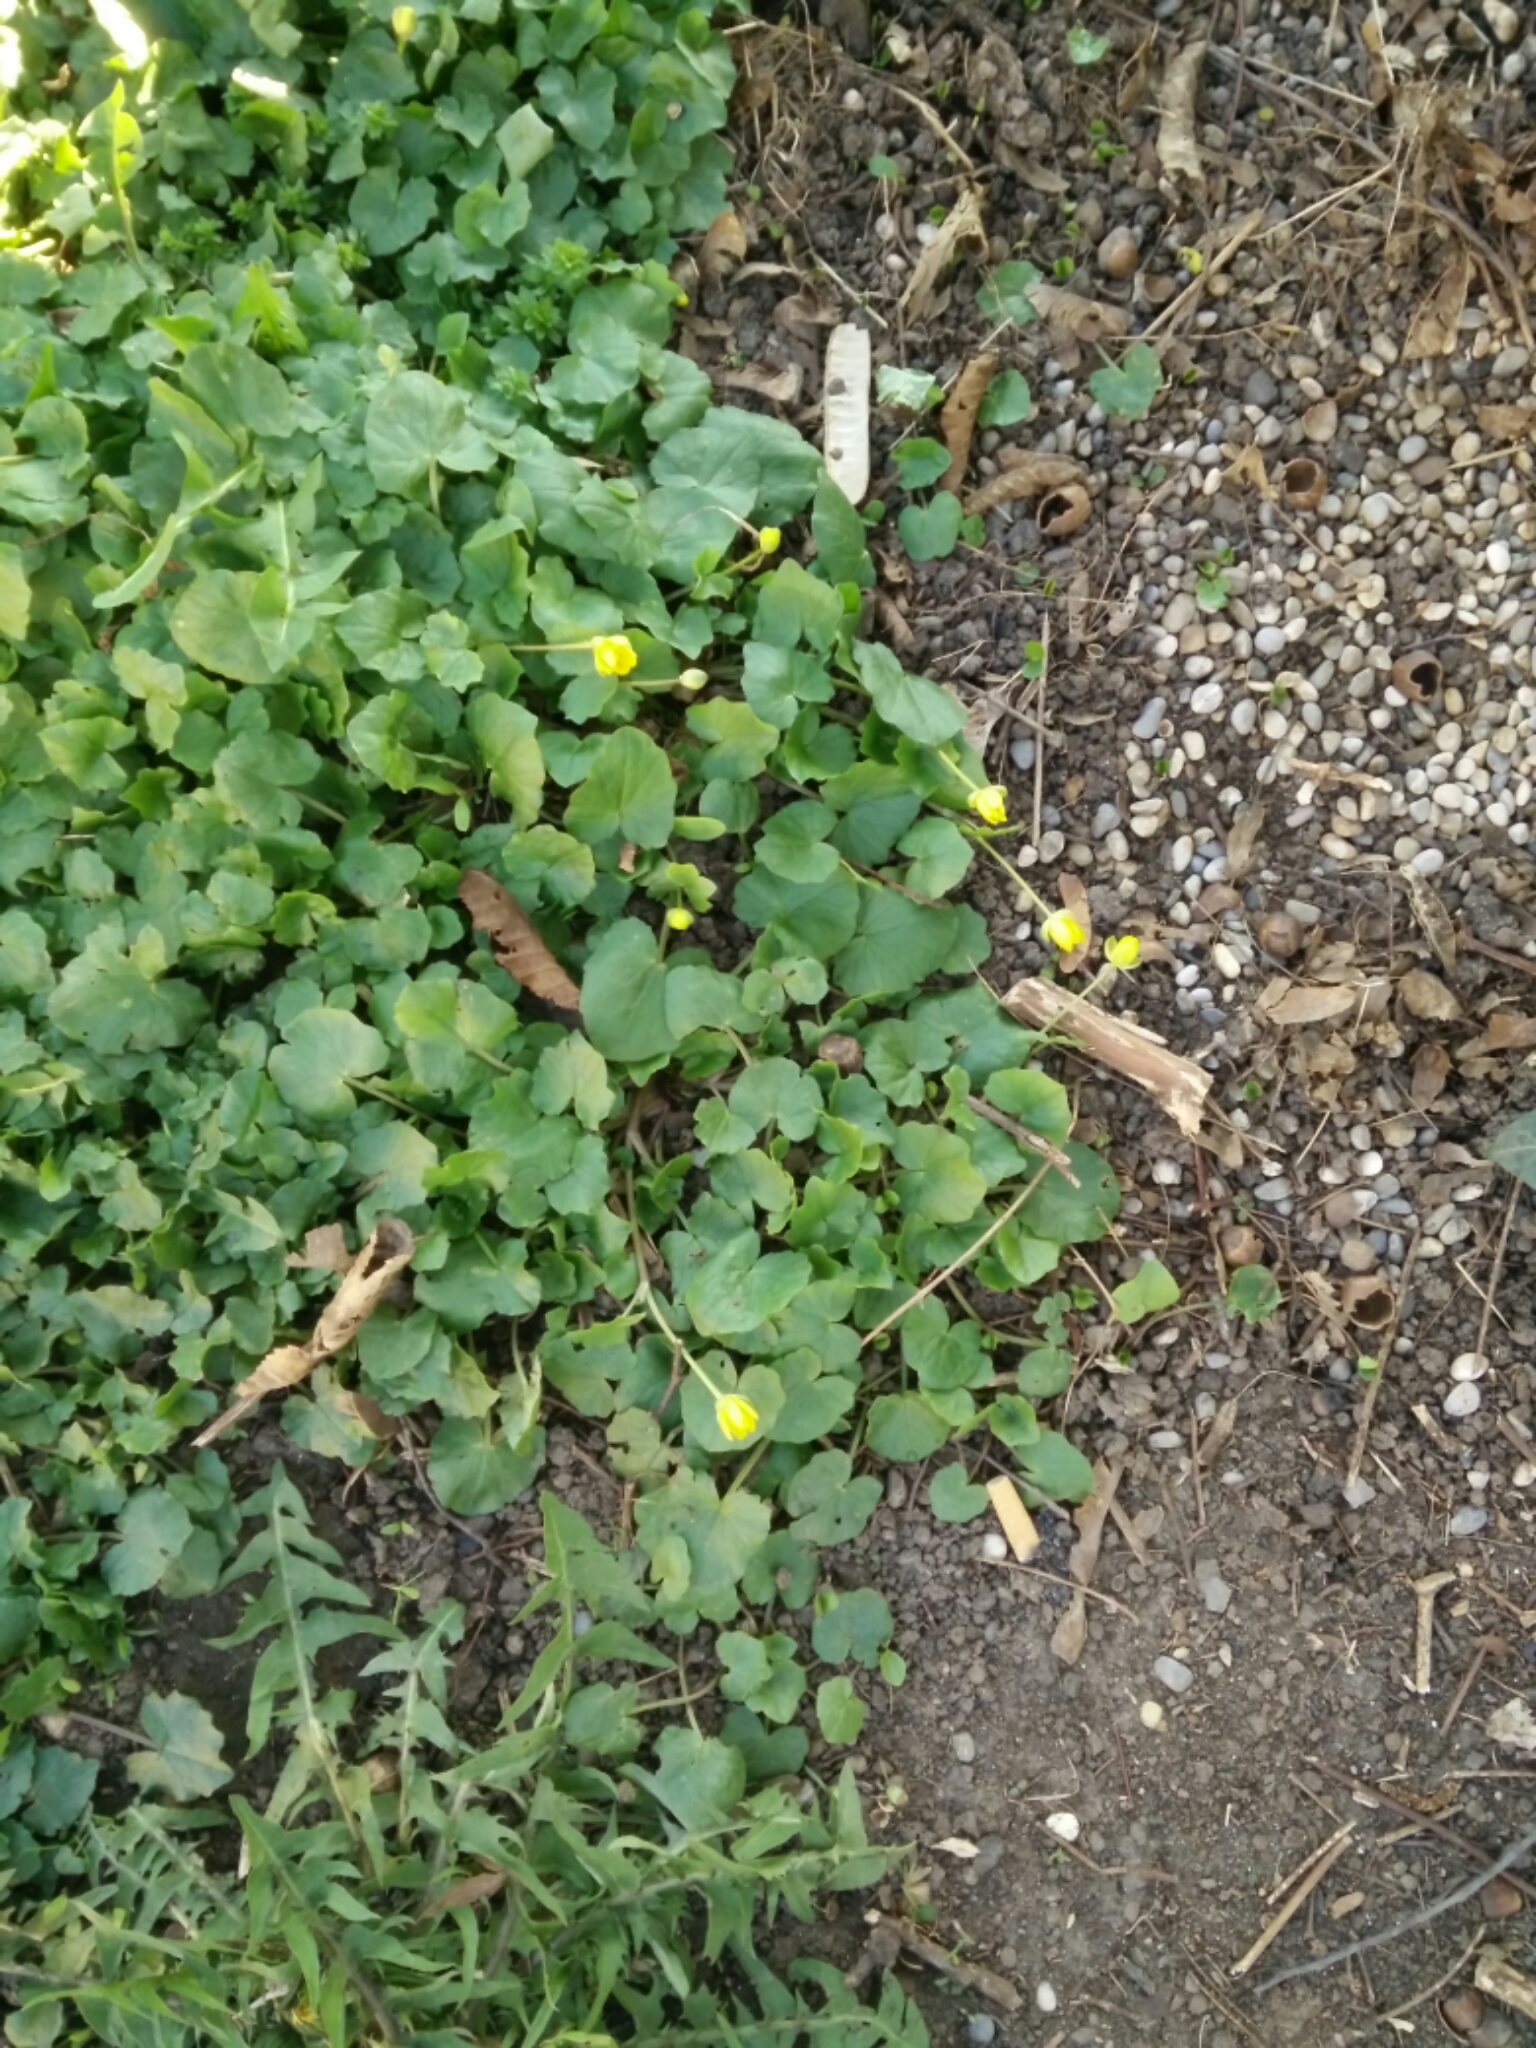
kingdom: Plantae
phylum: Tracheophyta
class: Magnoliopsida
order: Ranunculales
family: Ranunculaceae
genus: Ficaria
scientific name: Ficaria verna
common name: Lesser celandine
